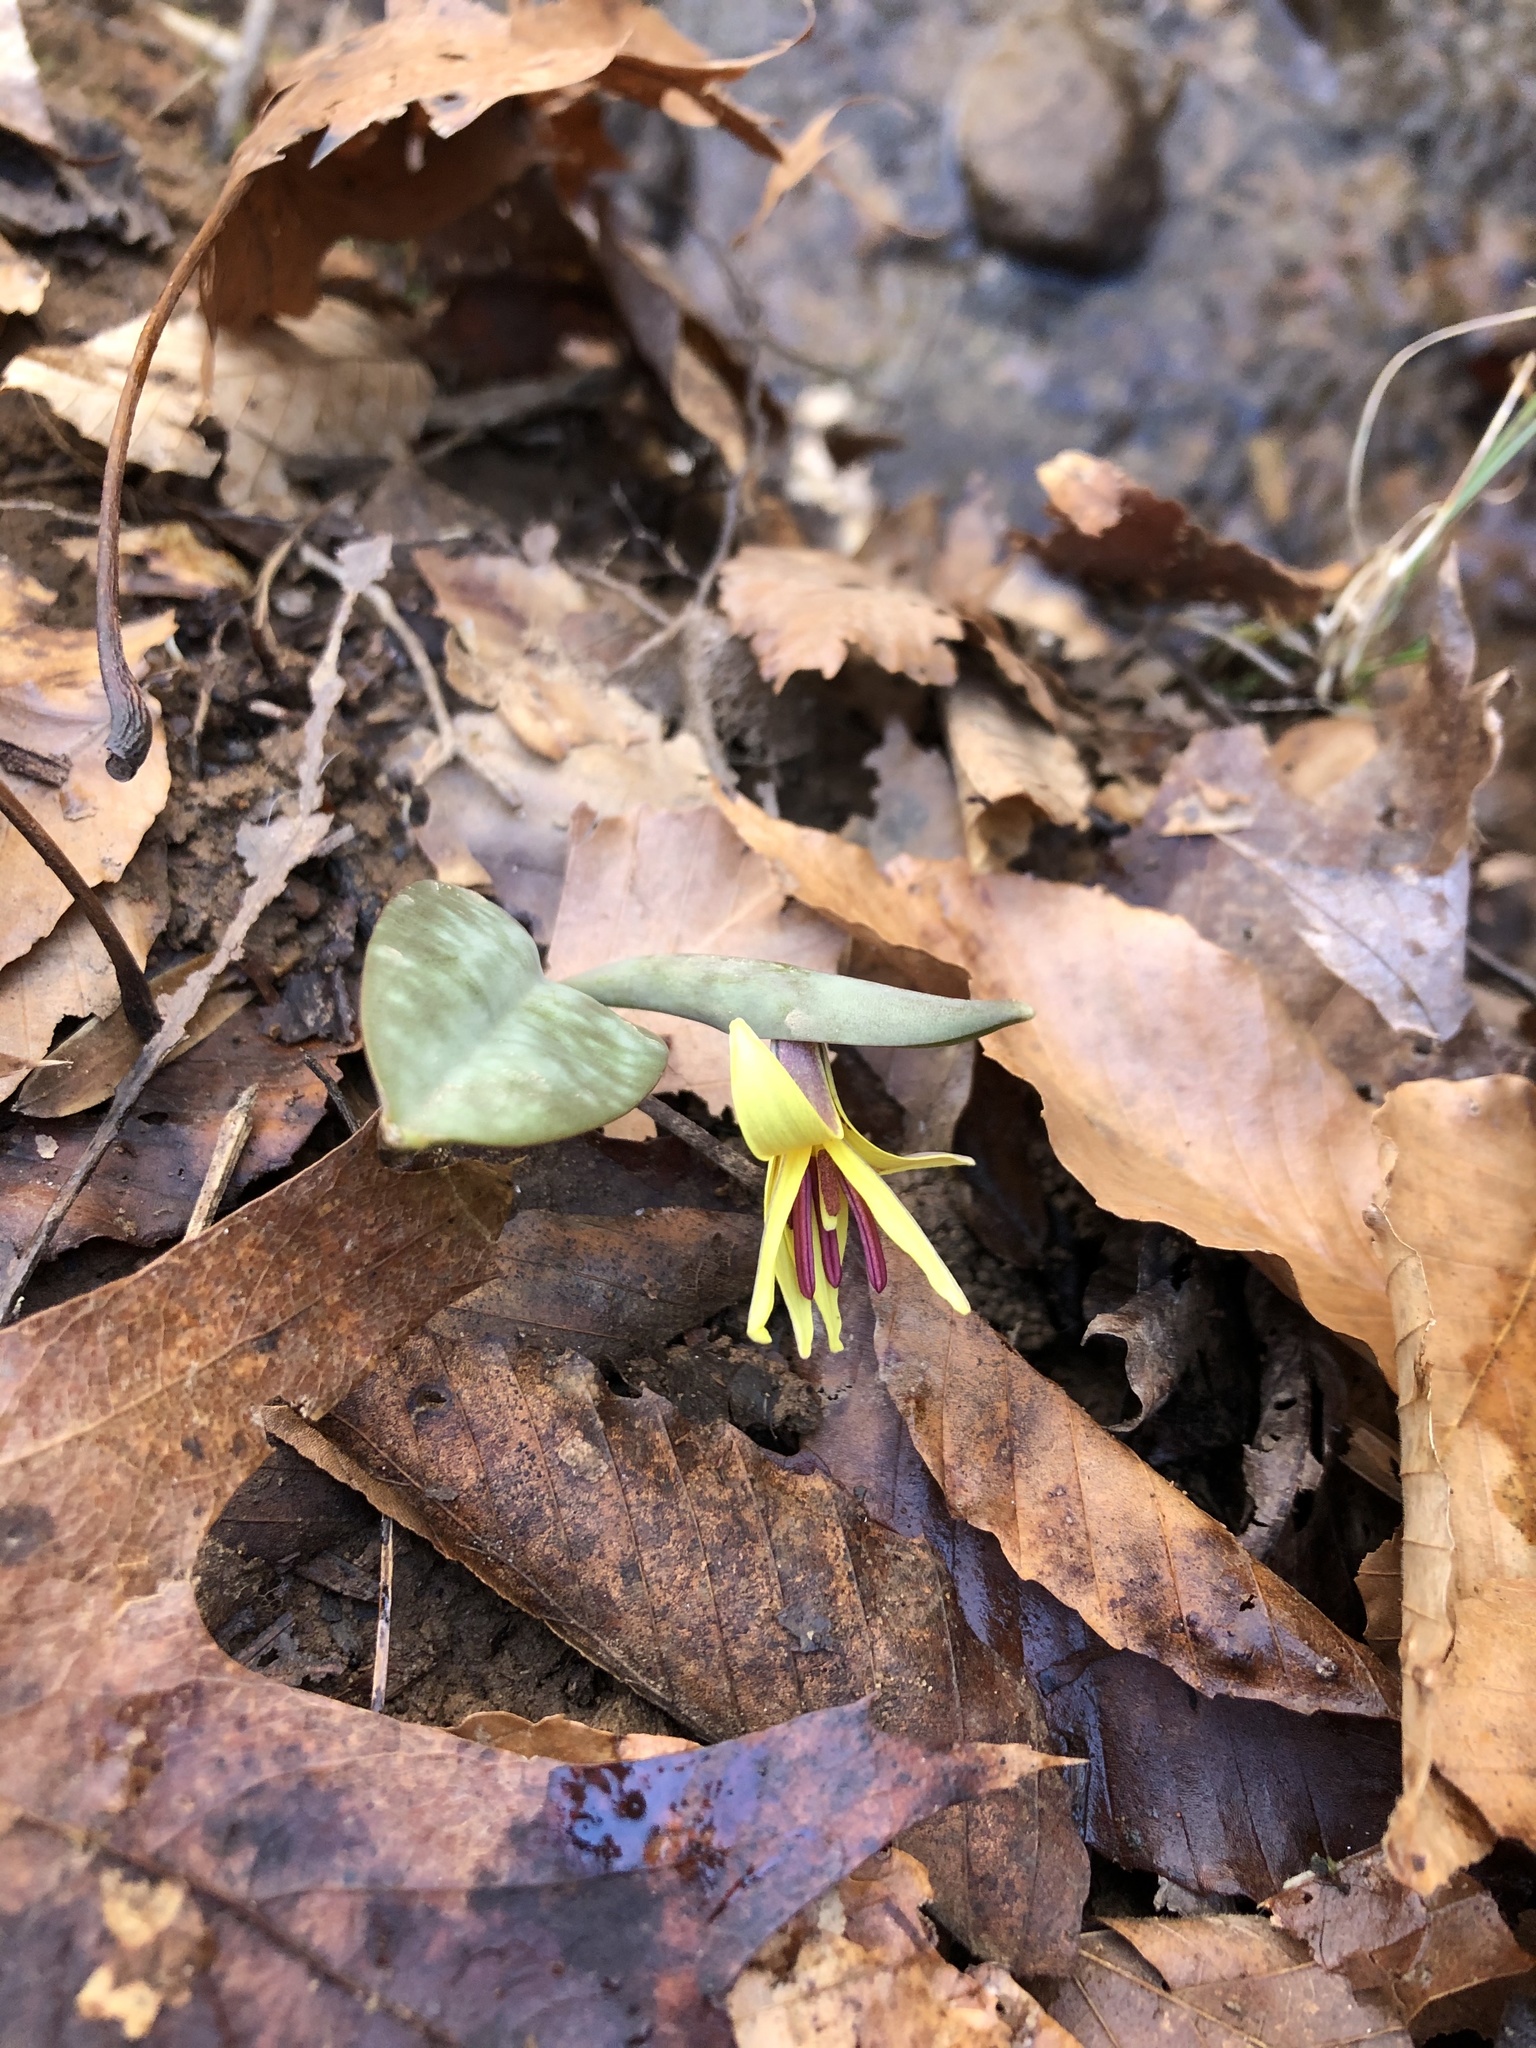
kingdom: Plantae
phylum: Tracheophyta
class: Liliopsida
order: Liliales
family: Liliaceae
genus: Erythronium
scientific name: Erythronium umbilicatum
